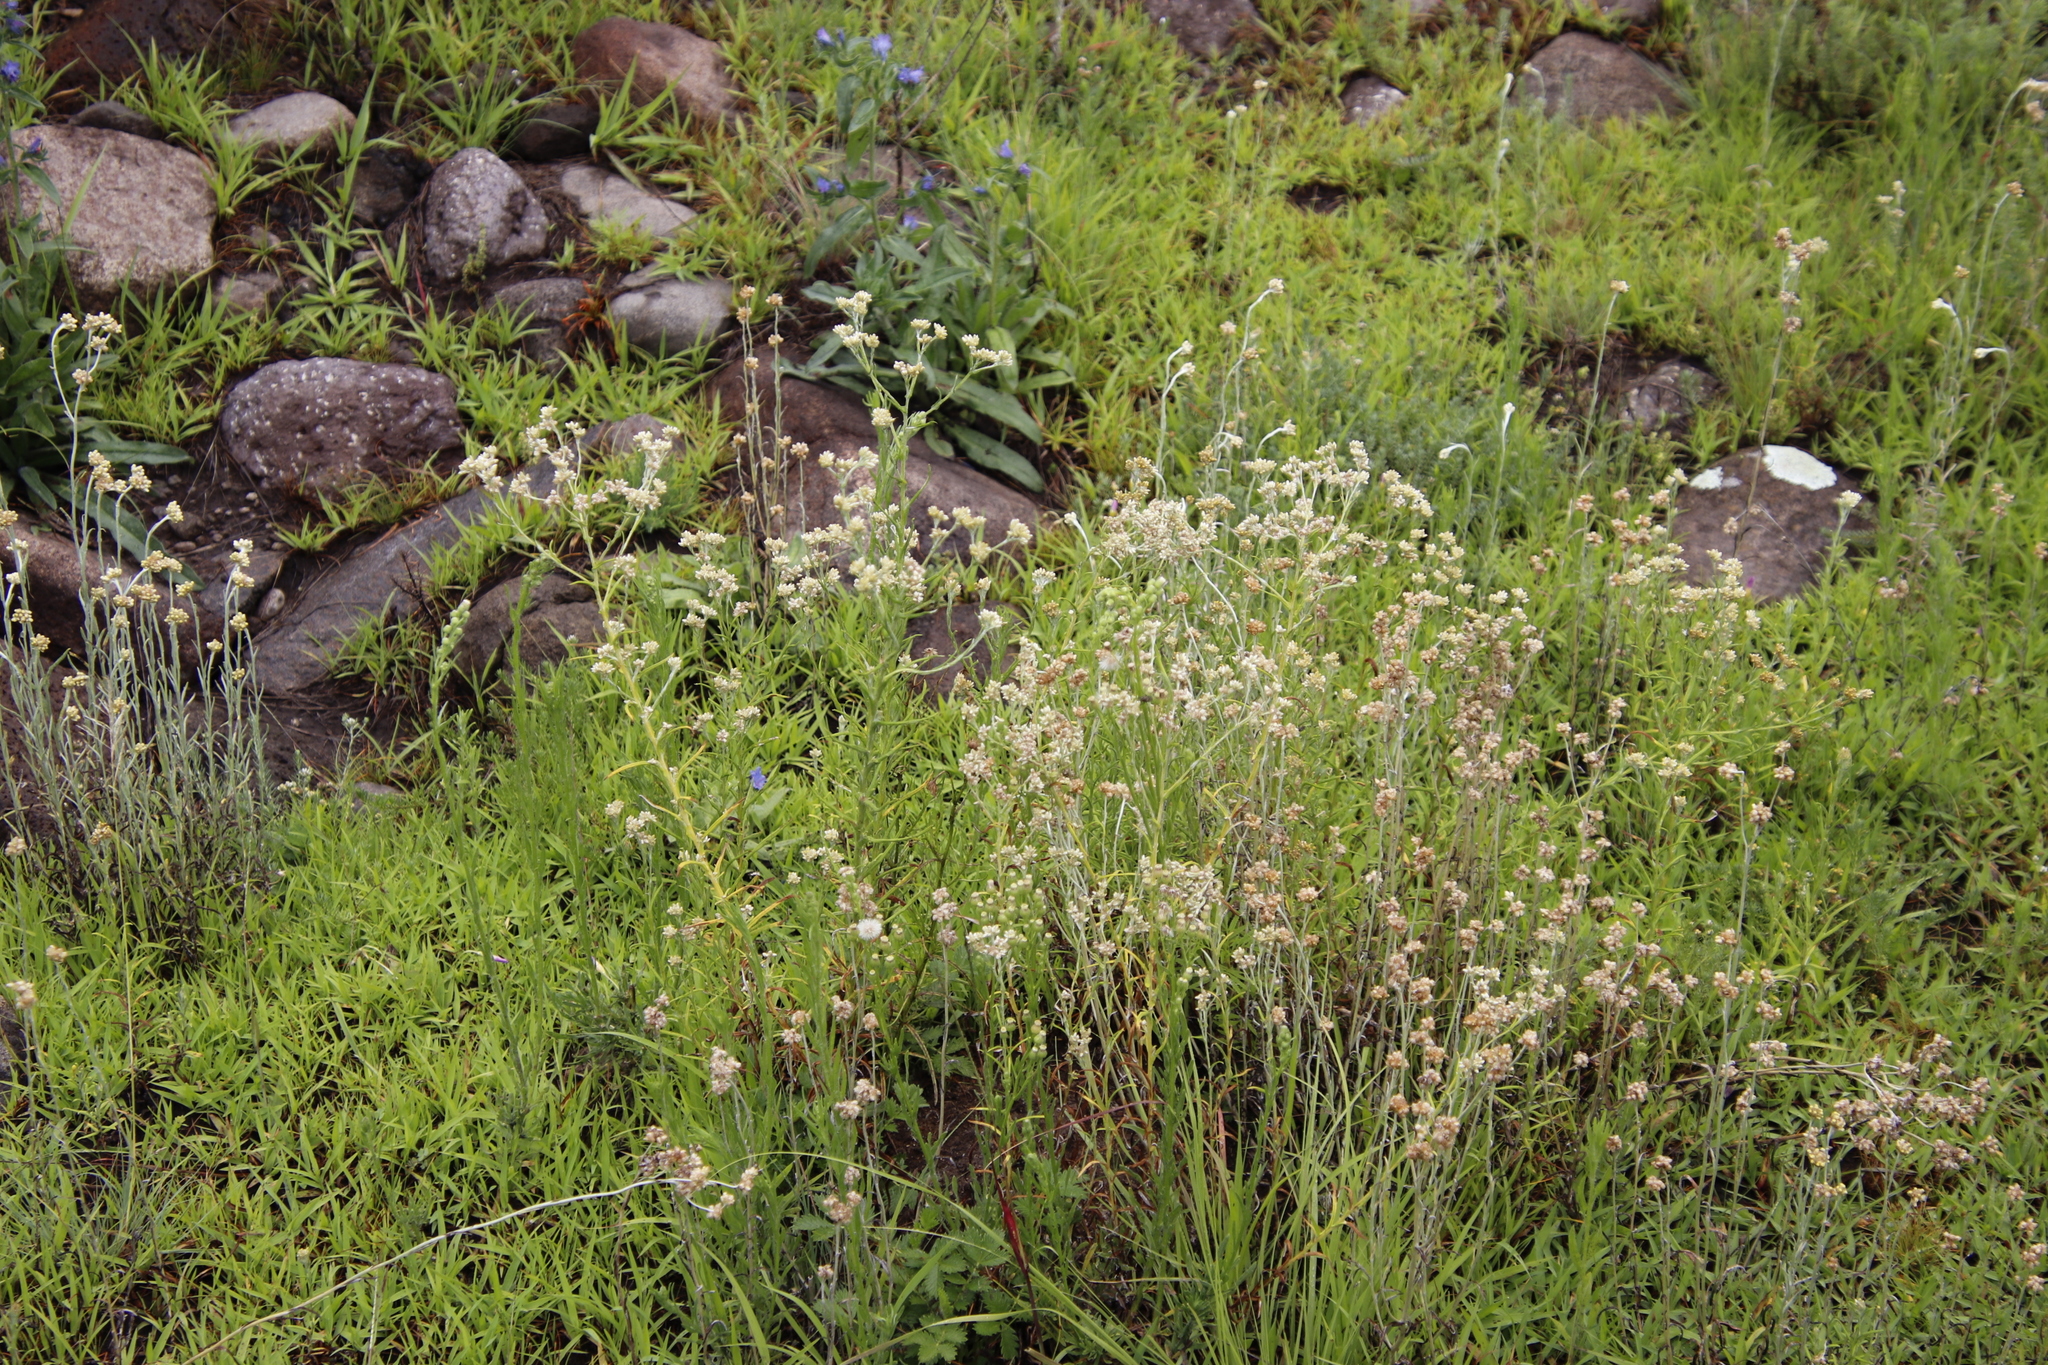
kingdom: Plantae
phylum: Tracheophyta
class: Magnoliopsida
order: Asterales
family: Asteraceae
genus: Pseudognaphalium
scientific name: Pseudognaphalium undulatum
